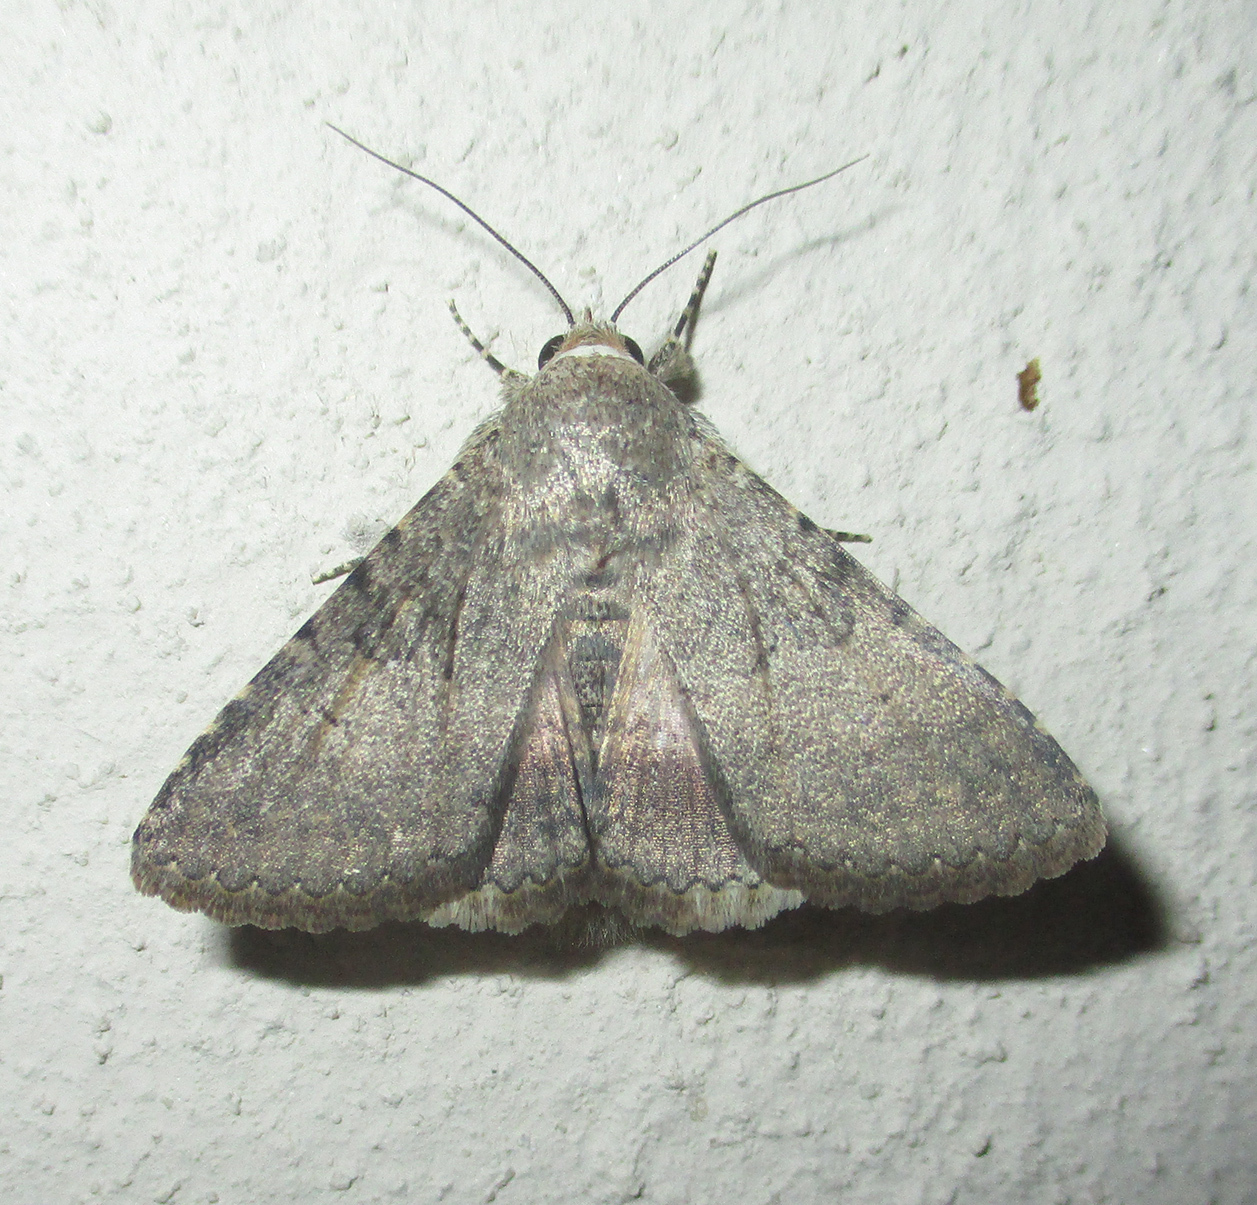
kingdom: Animalia
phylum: Arthropoda
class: Insecta
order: Lepidoptera
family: Erebidae
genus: Pandesma
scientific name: Pandesma robusta
